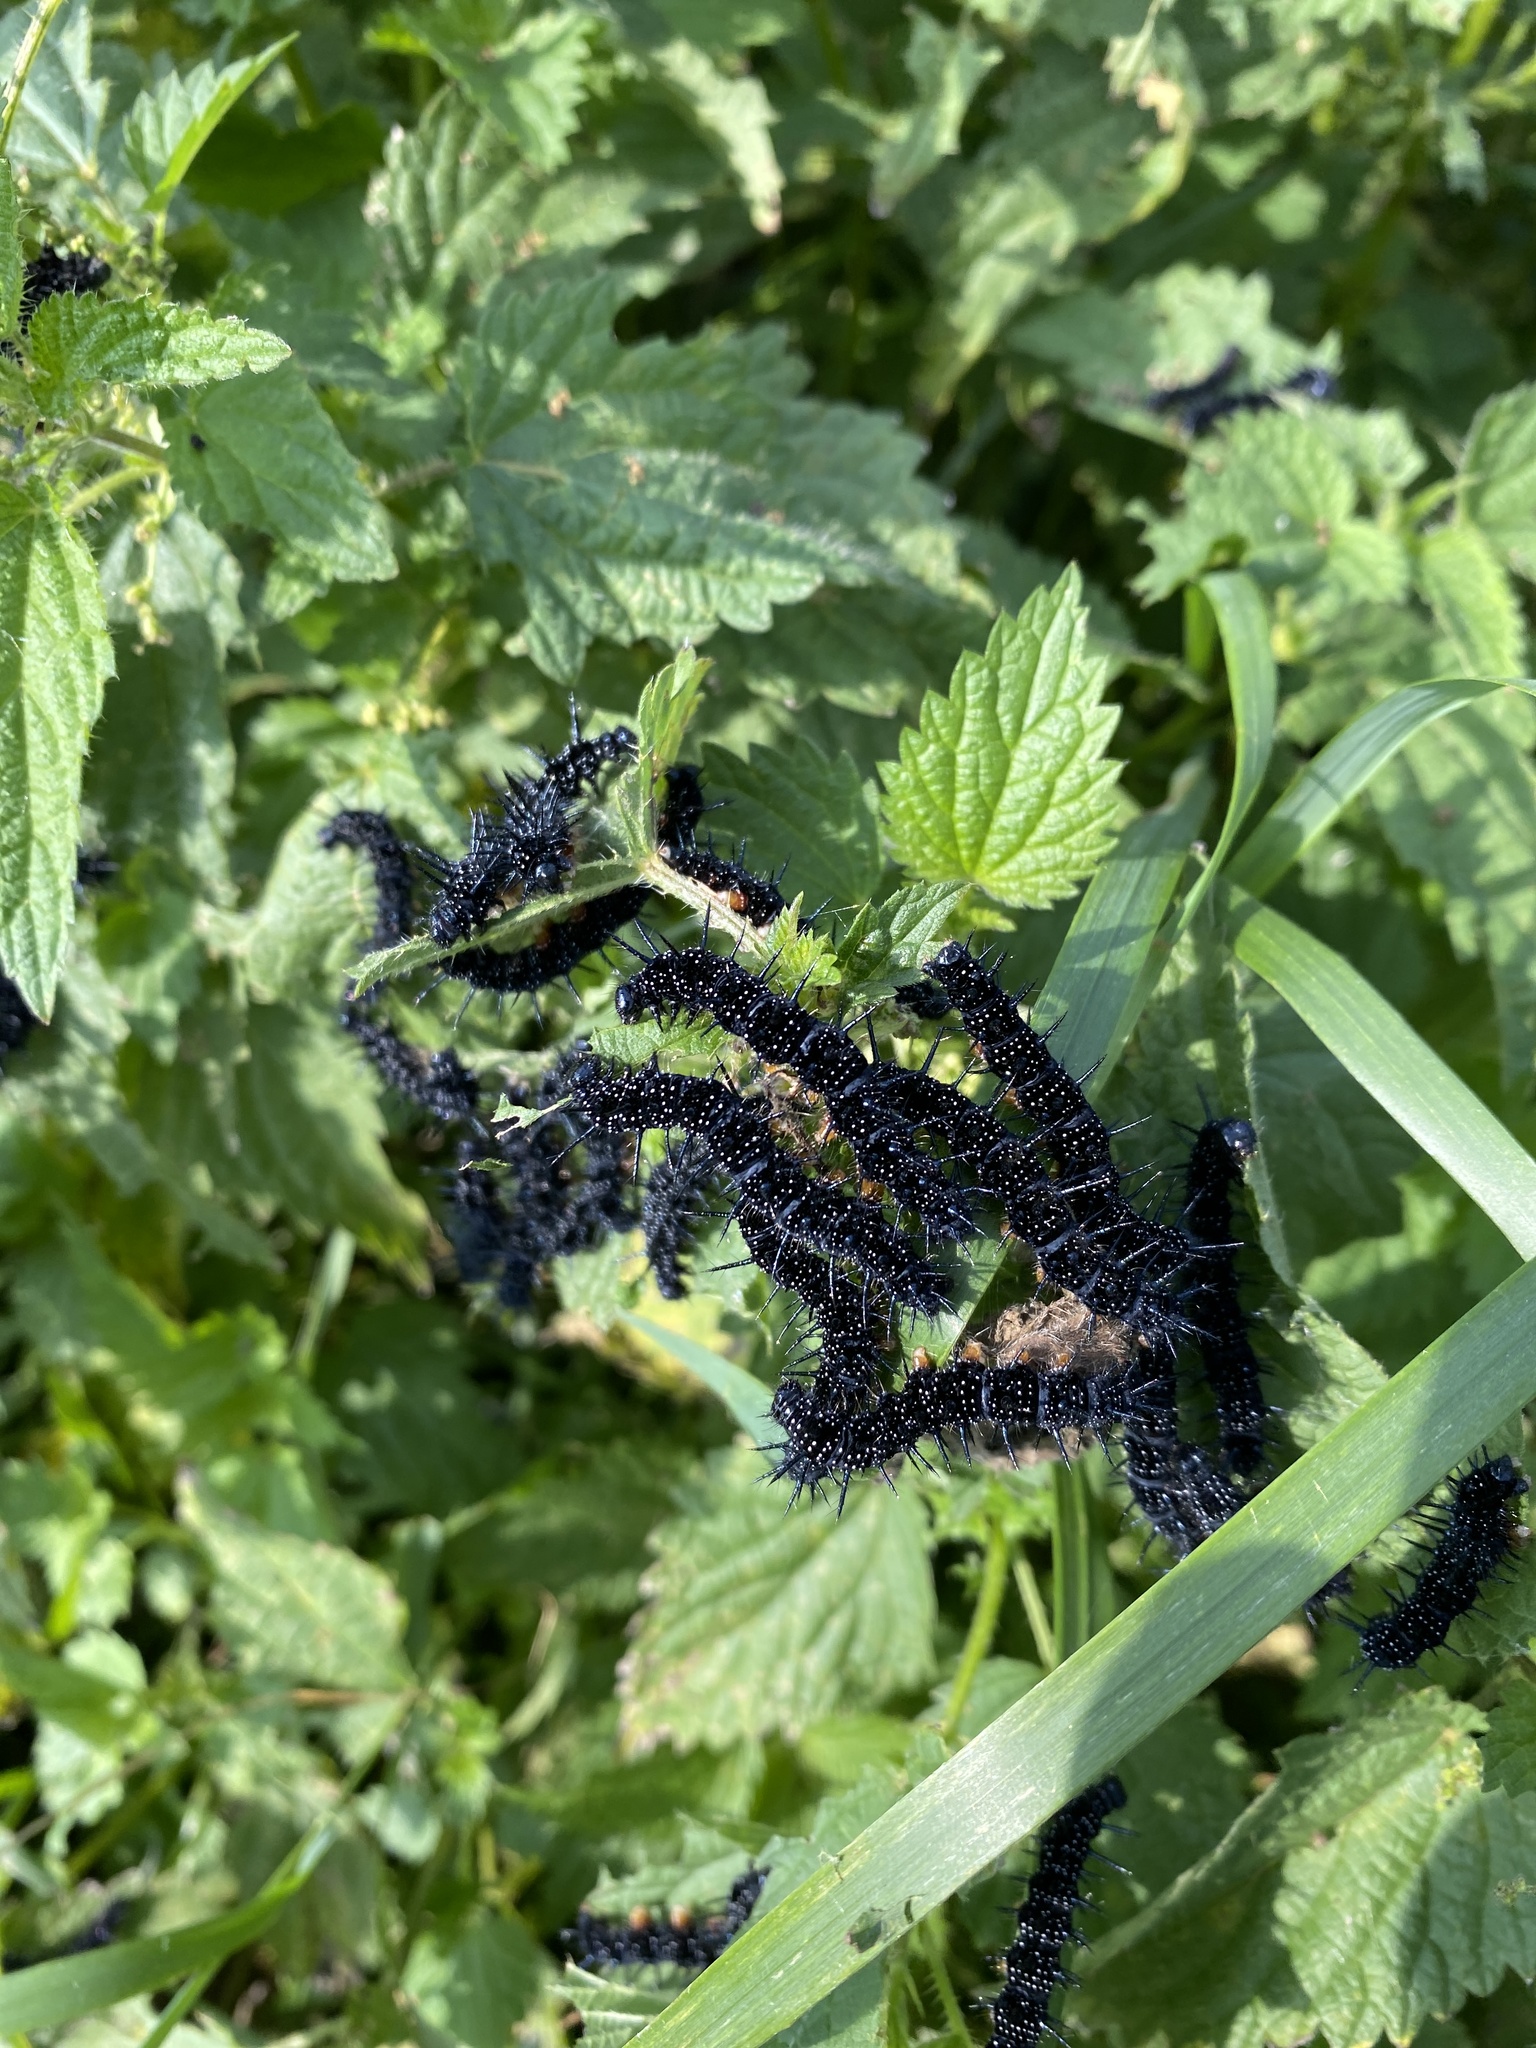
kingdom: Animalia
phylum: Arthropoda
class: Insecta
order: Lepidoptera
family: Nymphalidae
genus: Aglais
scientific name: Aglais io
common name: Peacock
